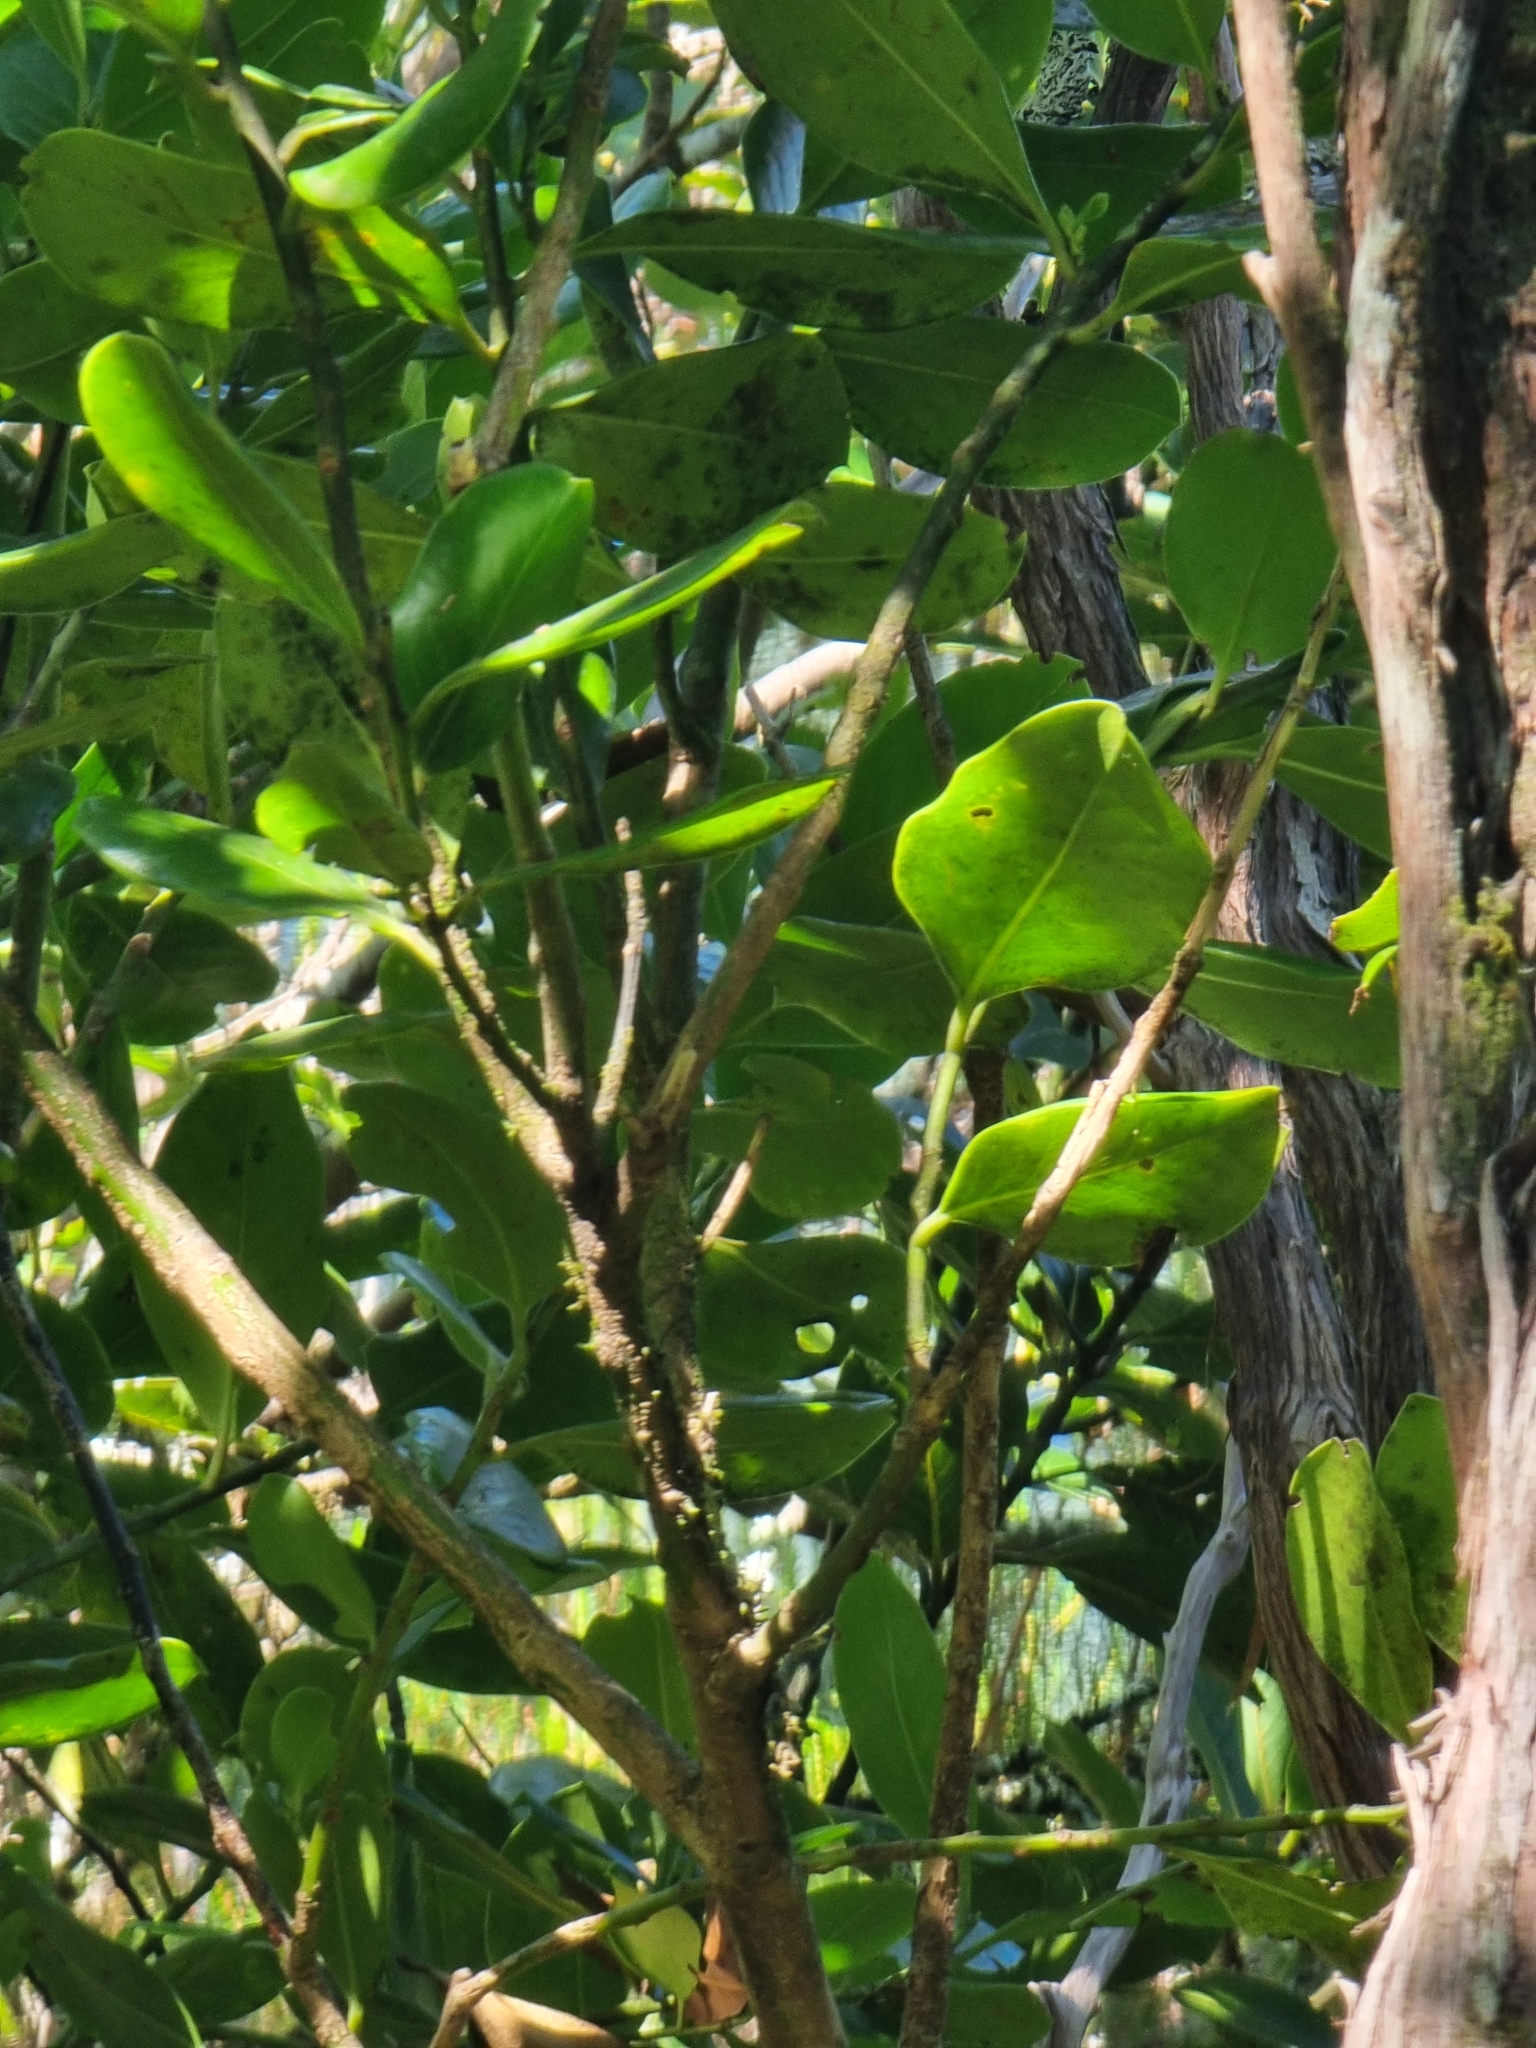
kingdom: Plantae
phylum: Tracheophyta
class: Magnoliopsida
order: Aquifoliales
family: Aquifoliaceae
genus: Ilex
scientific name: Ilex perado
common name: Madeira holly
